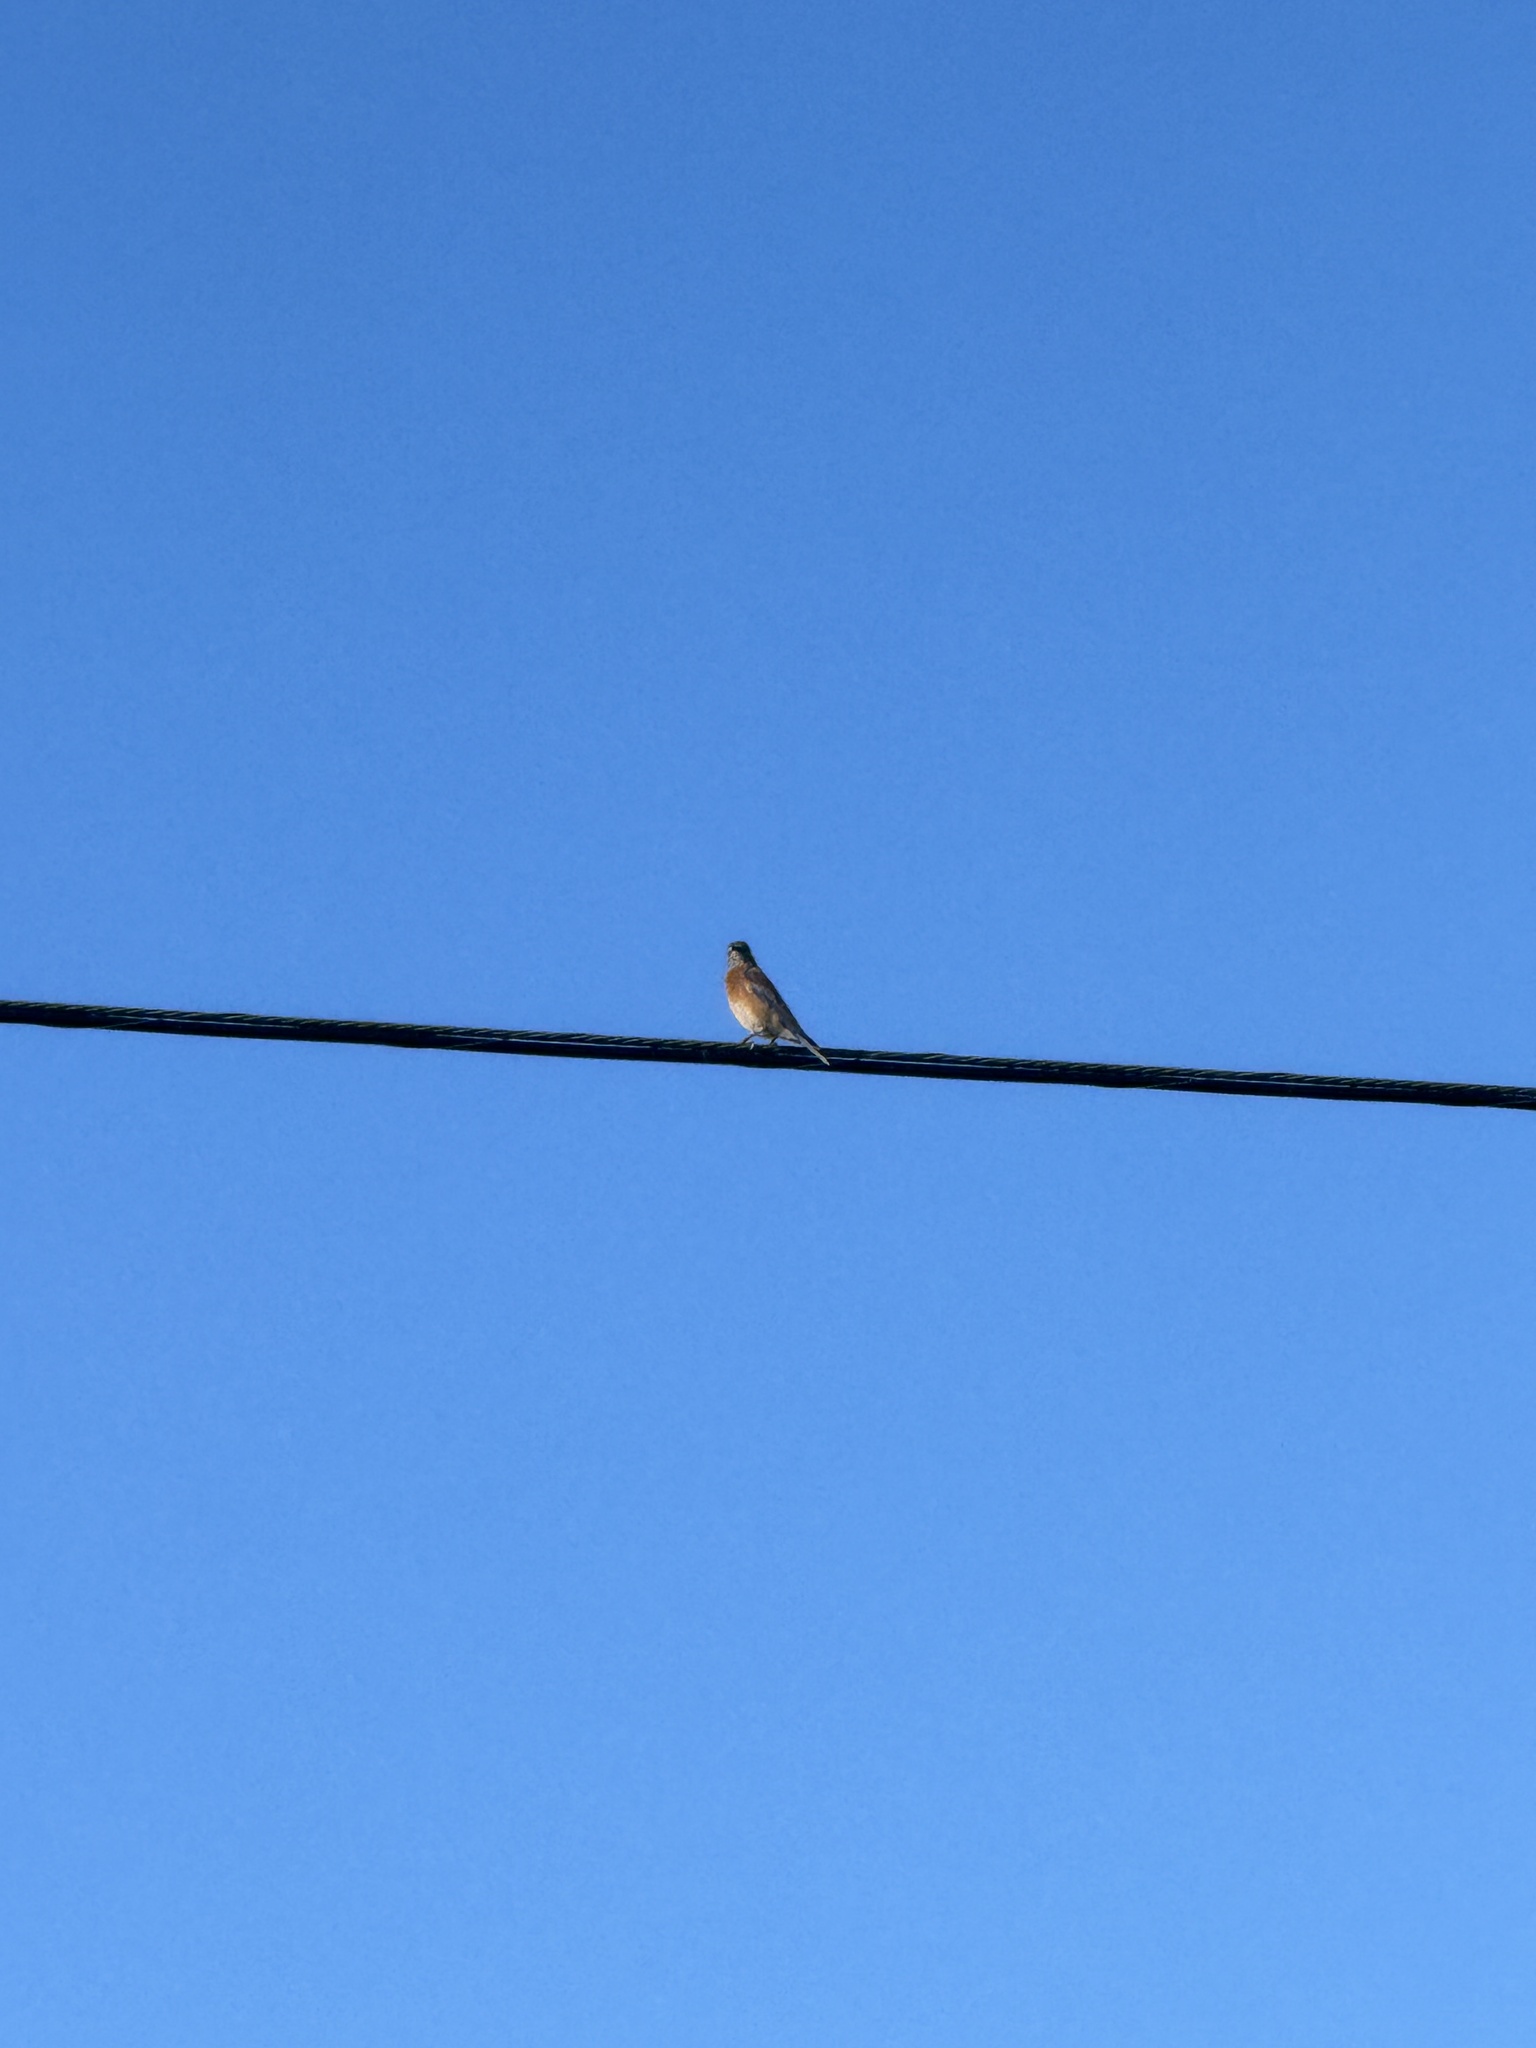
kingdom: Animalia
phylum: Chordata
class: Aves
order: Passeriformes
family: Turdidae
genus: Sialia
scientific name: Sialia mexicana
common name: Western bluebird
